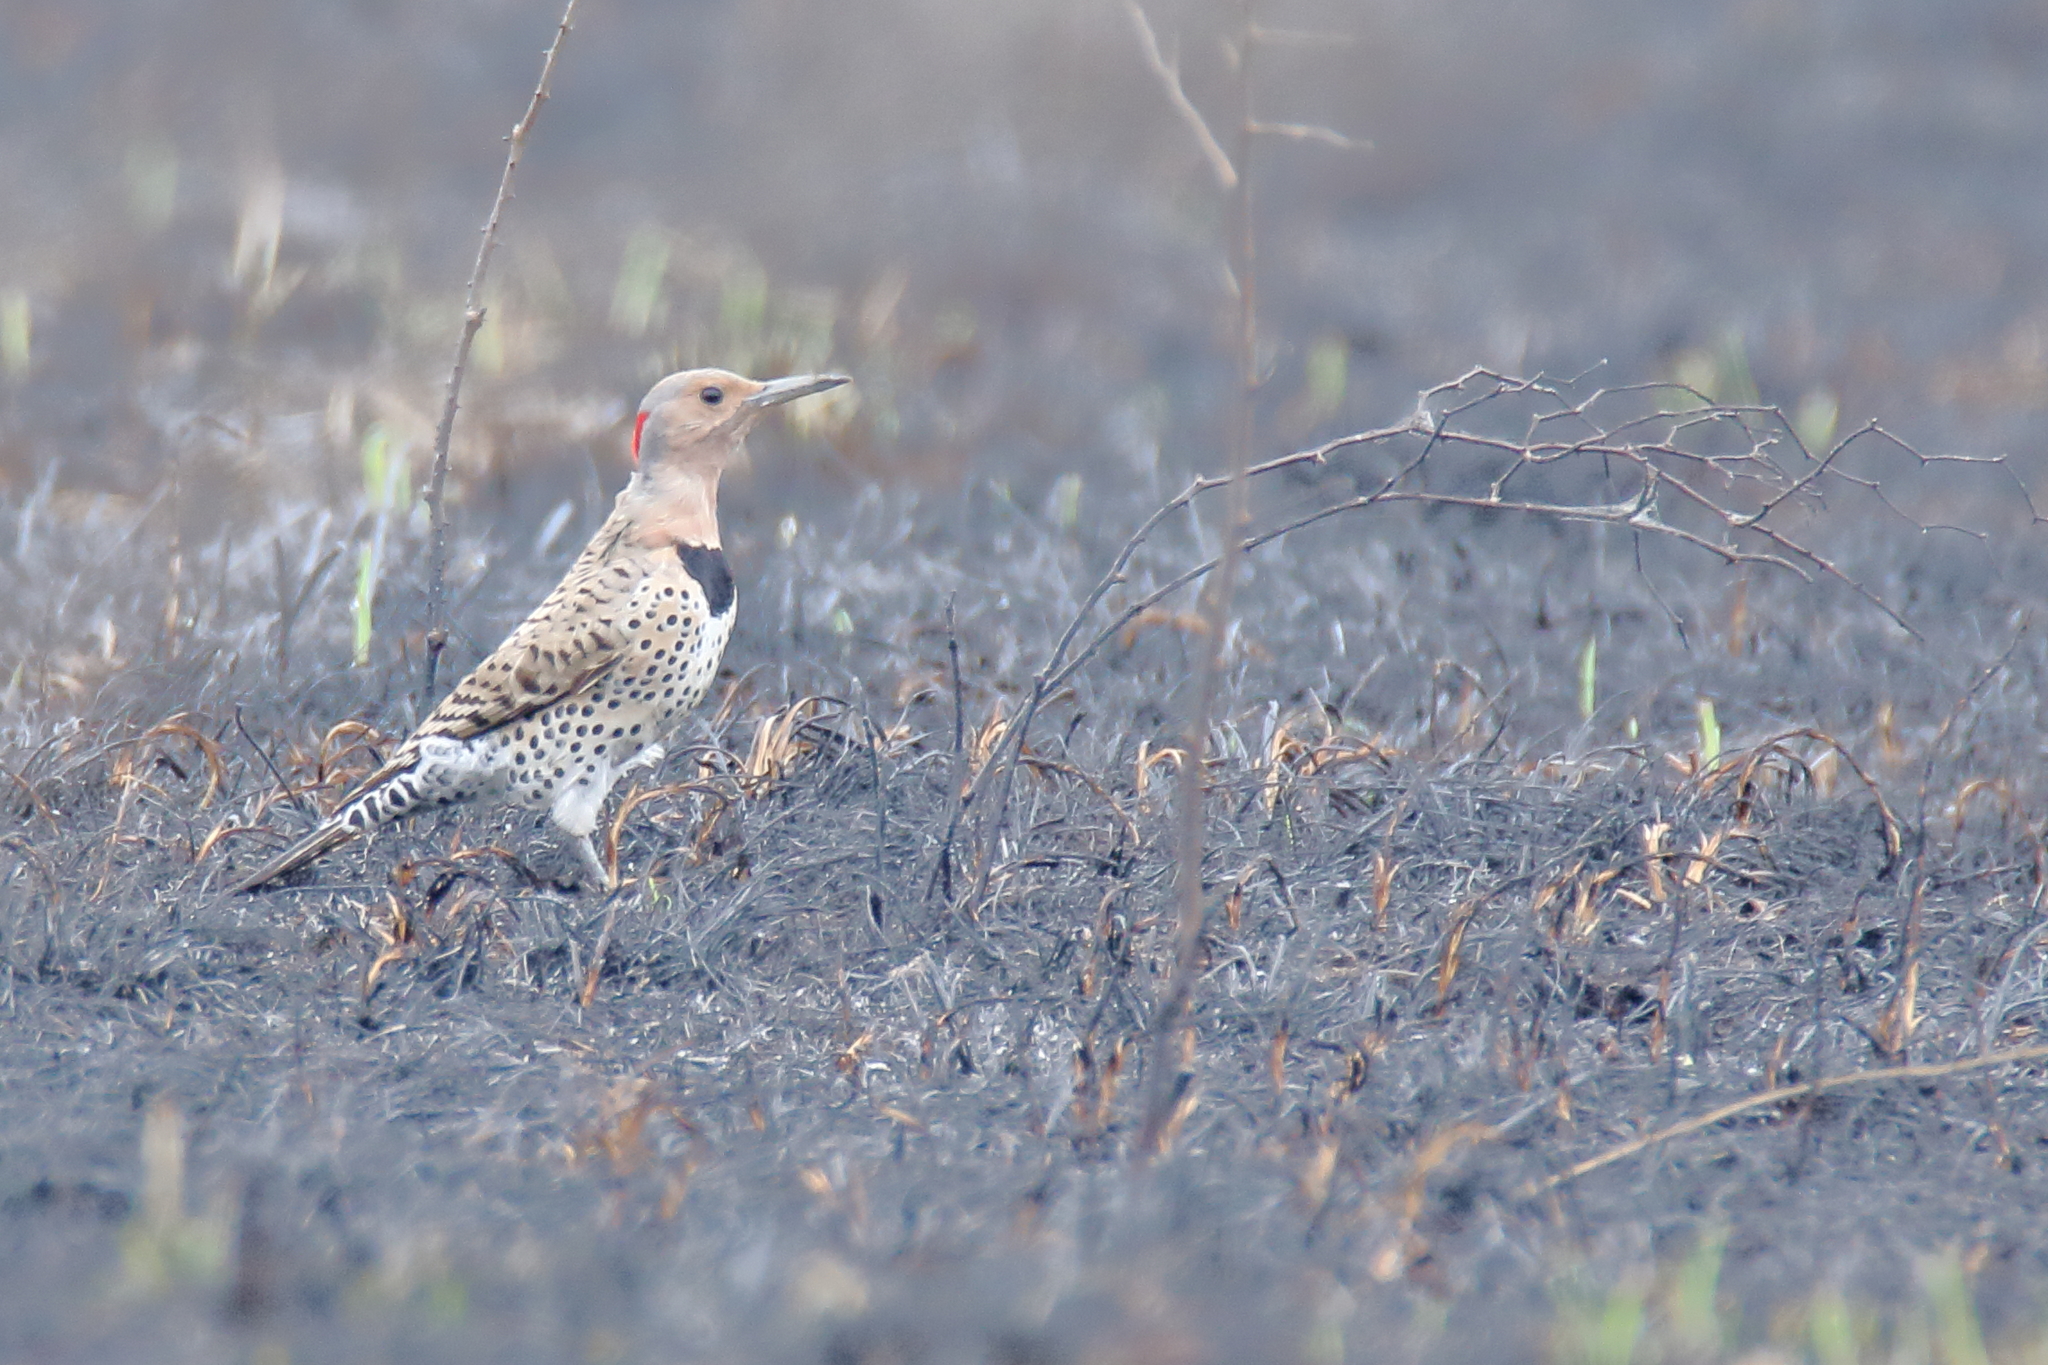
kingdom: Animalia
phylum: Chordata
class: Aves
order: Piciformes
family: Picidae
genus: Colaptes
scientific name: Colaptes auratus
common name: Northern flicker
